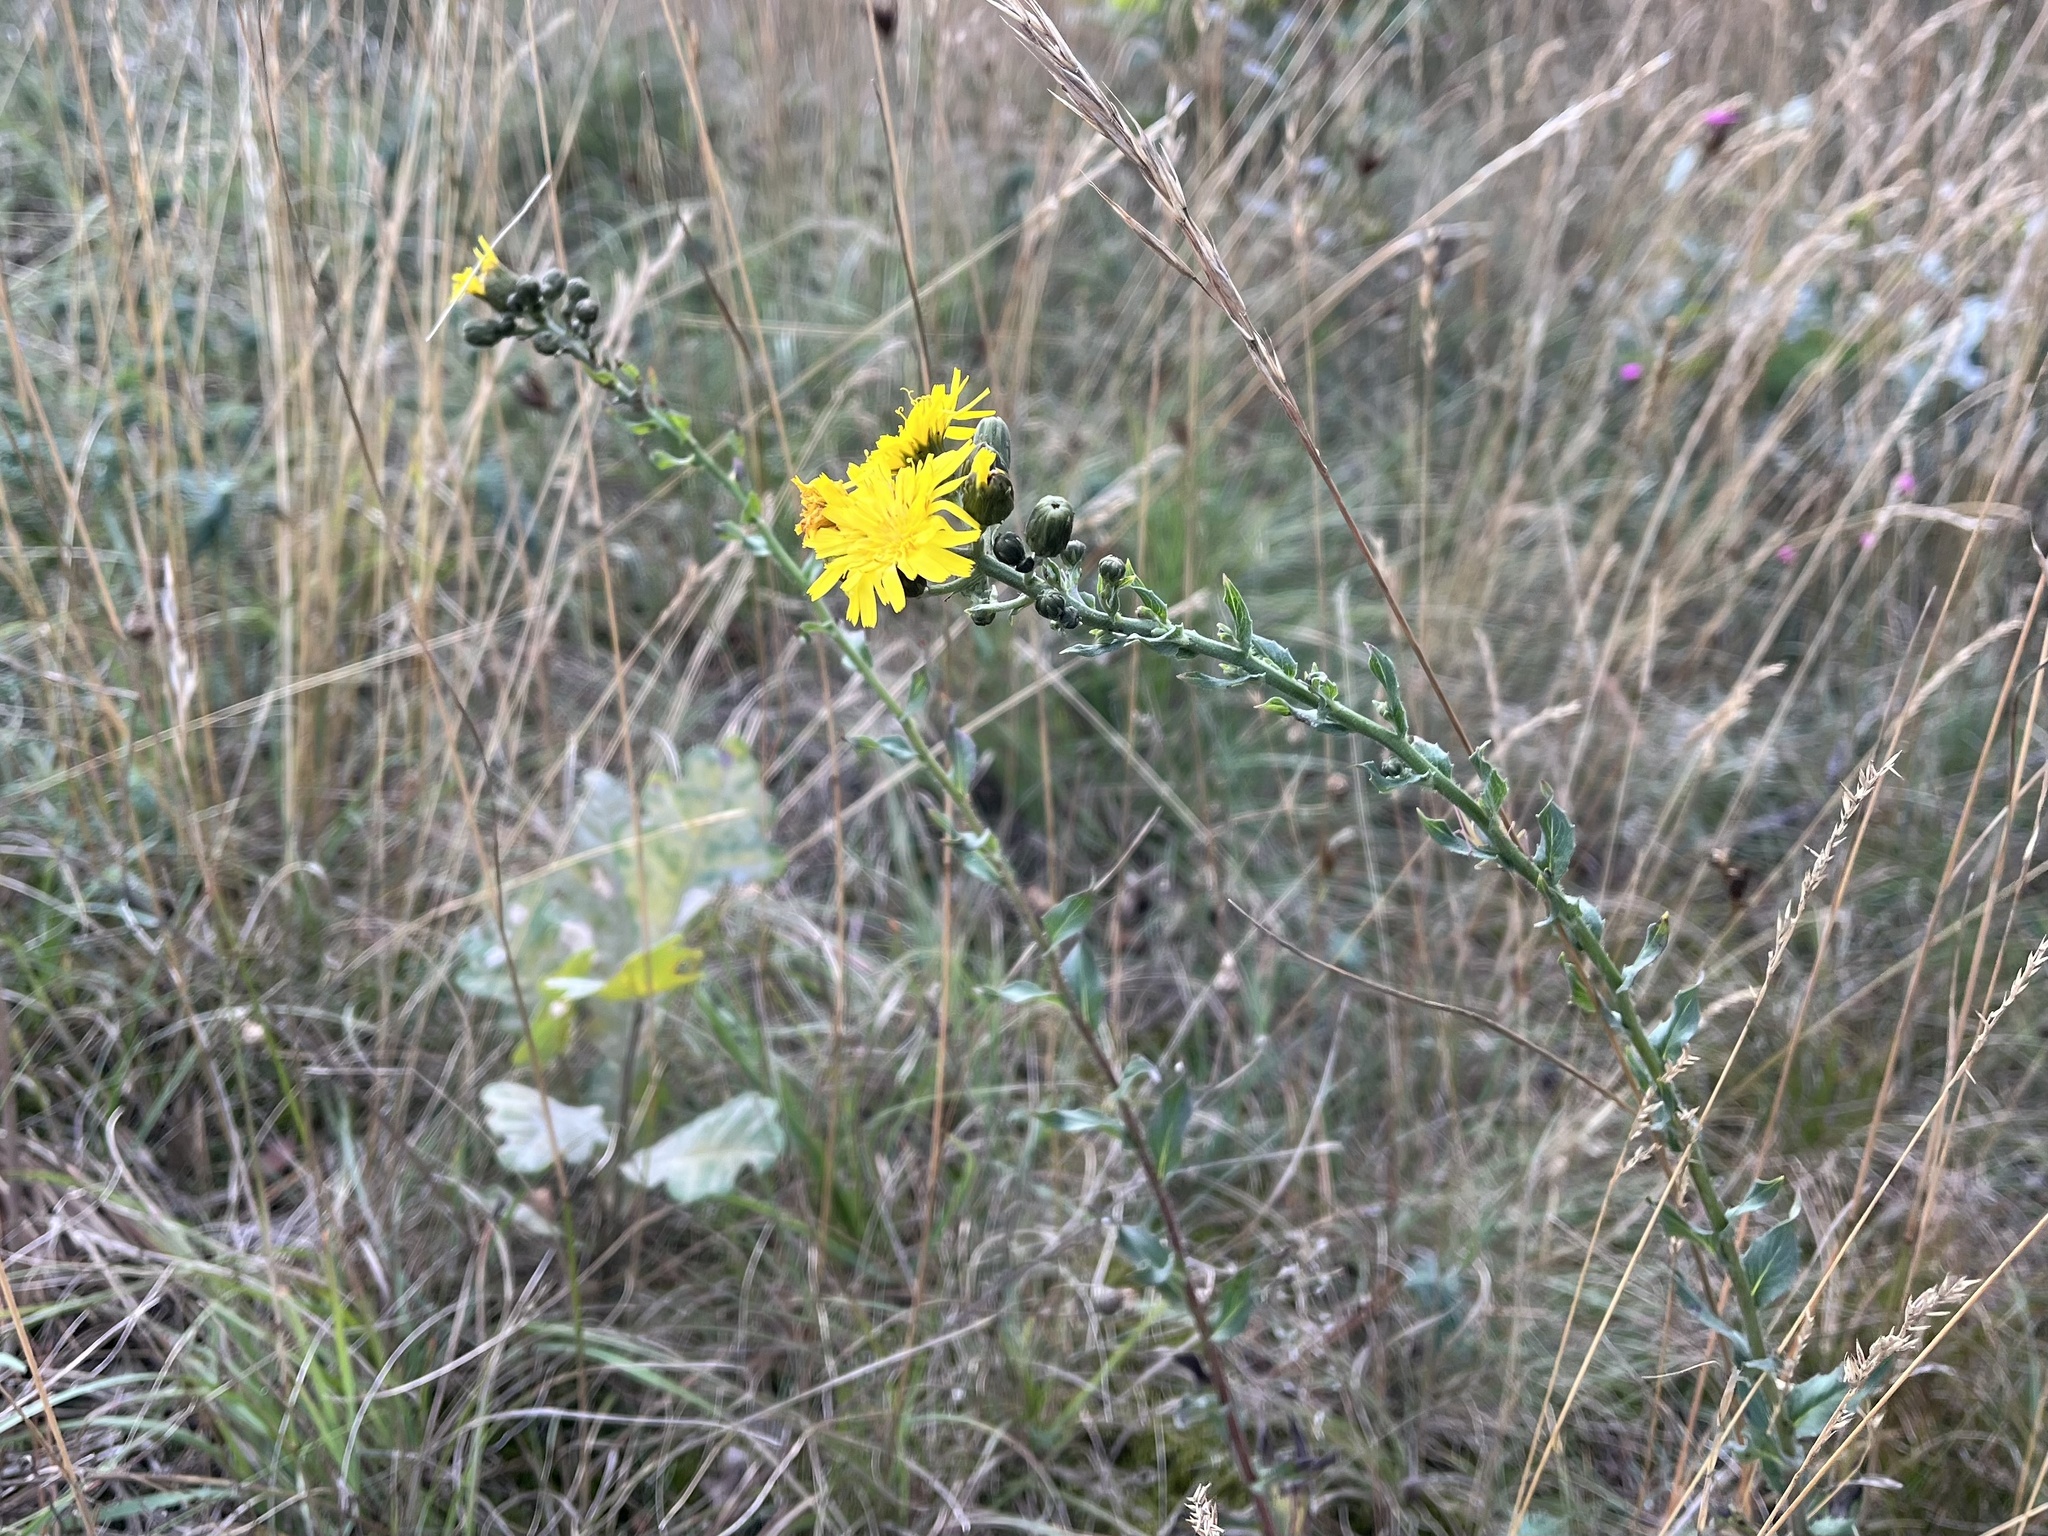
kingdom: Plantae
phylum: Tracheophyta
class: Magnoliopsida
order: Asterales
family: Asteraceae
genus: Hieracium
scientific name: Hieracium sabaudum
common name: New england hawkweed
